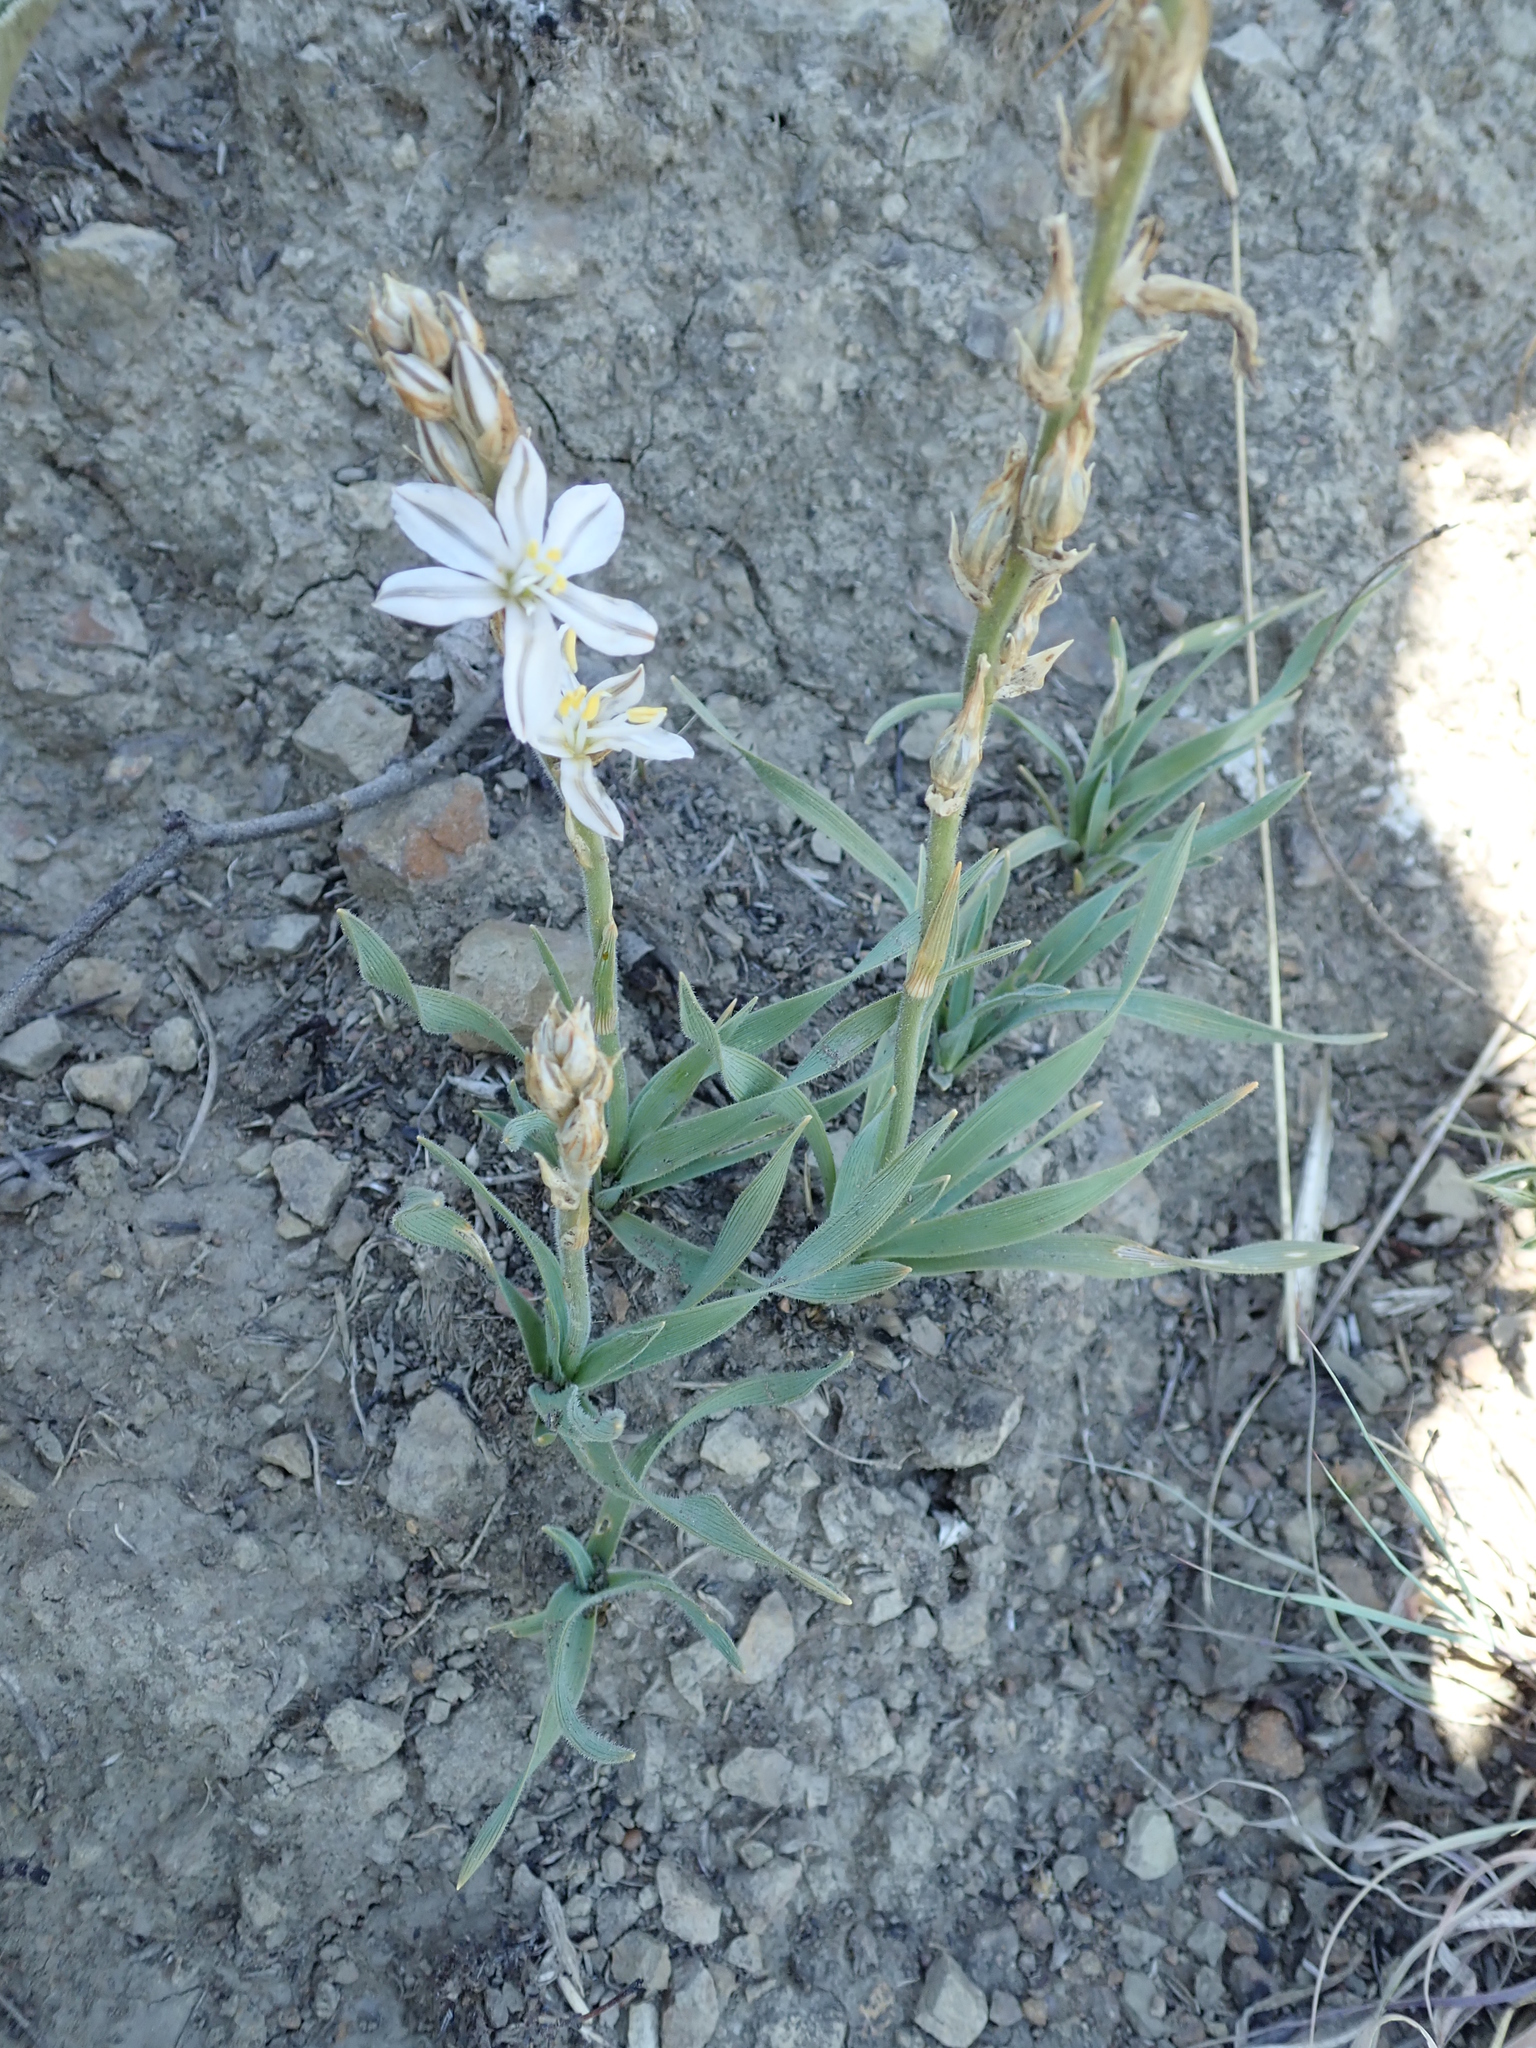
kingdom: Plantae
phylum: Tracheophyta
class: Liliopsida
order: Asparagales
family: Asparagaceae
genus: Chlorophytum
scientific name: Chlorophytum transvaalense
